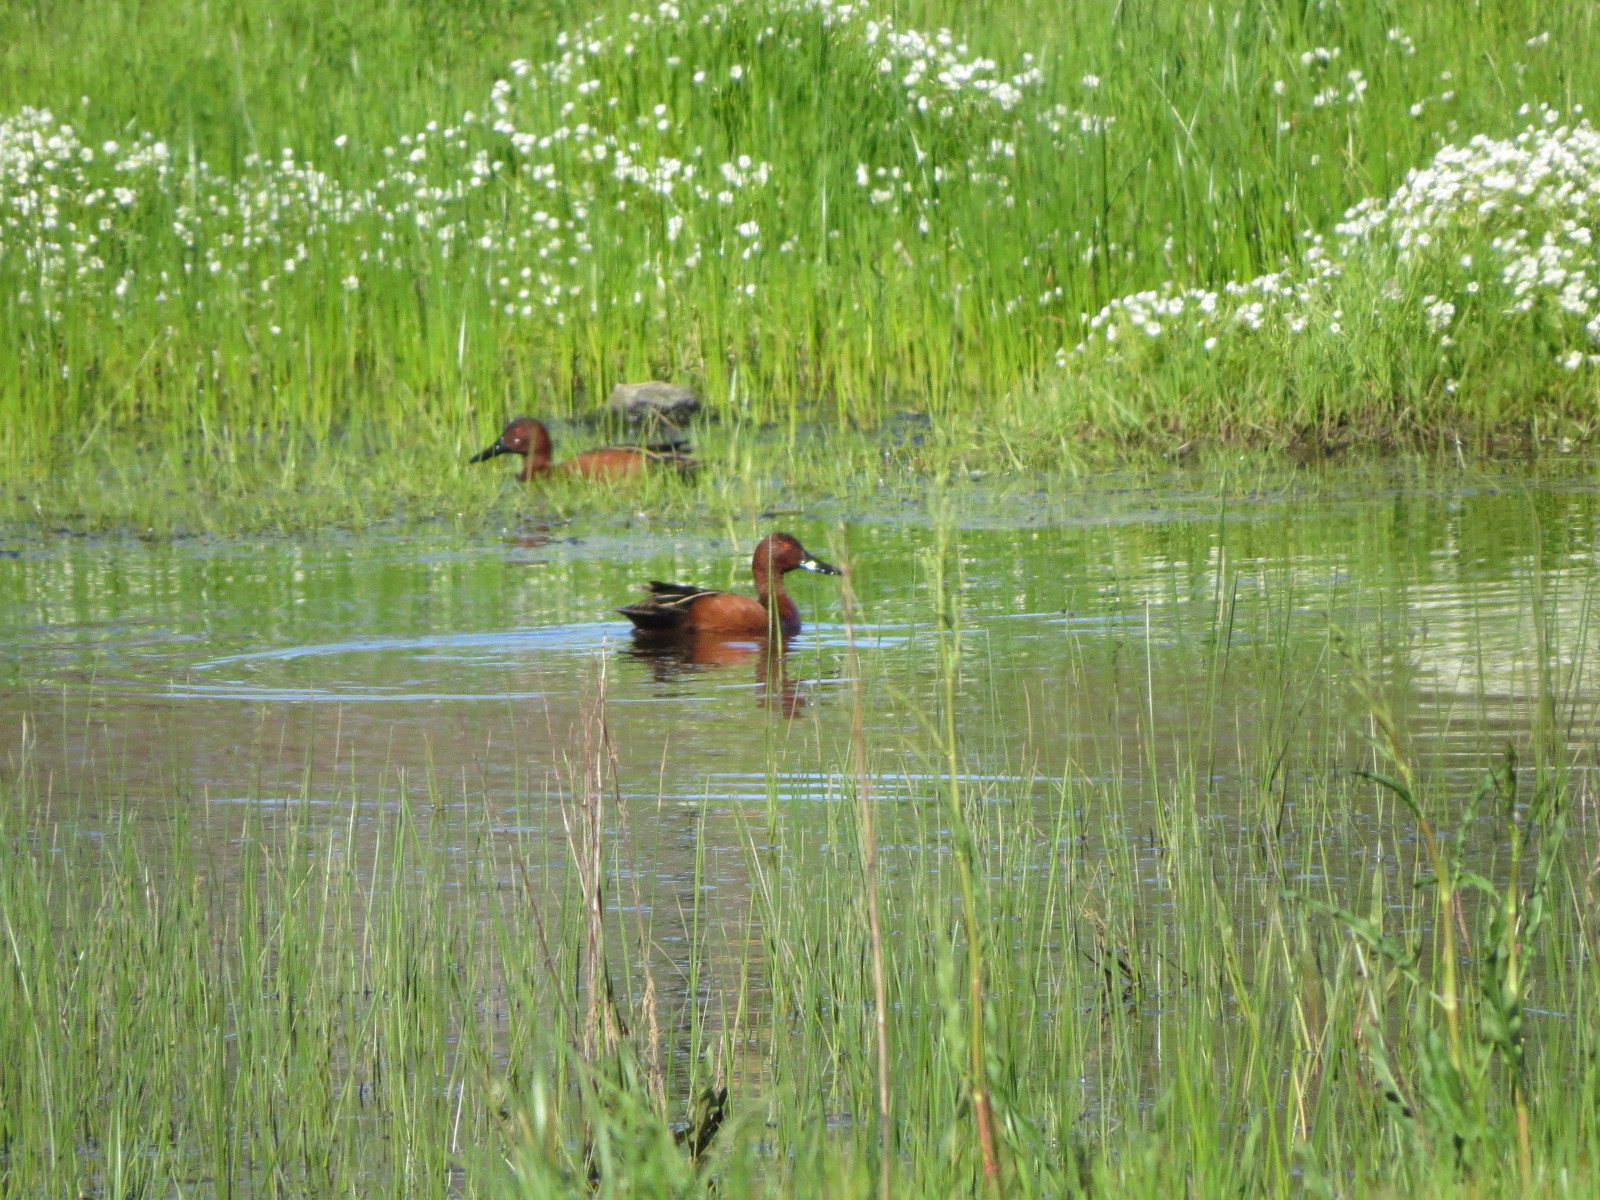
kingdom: Animalia
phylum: Chordata
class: Aves
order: Anseriformes
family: Anatidae
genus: Spatula
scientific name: Spatula cyanoptera
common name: Cinnamon teal
